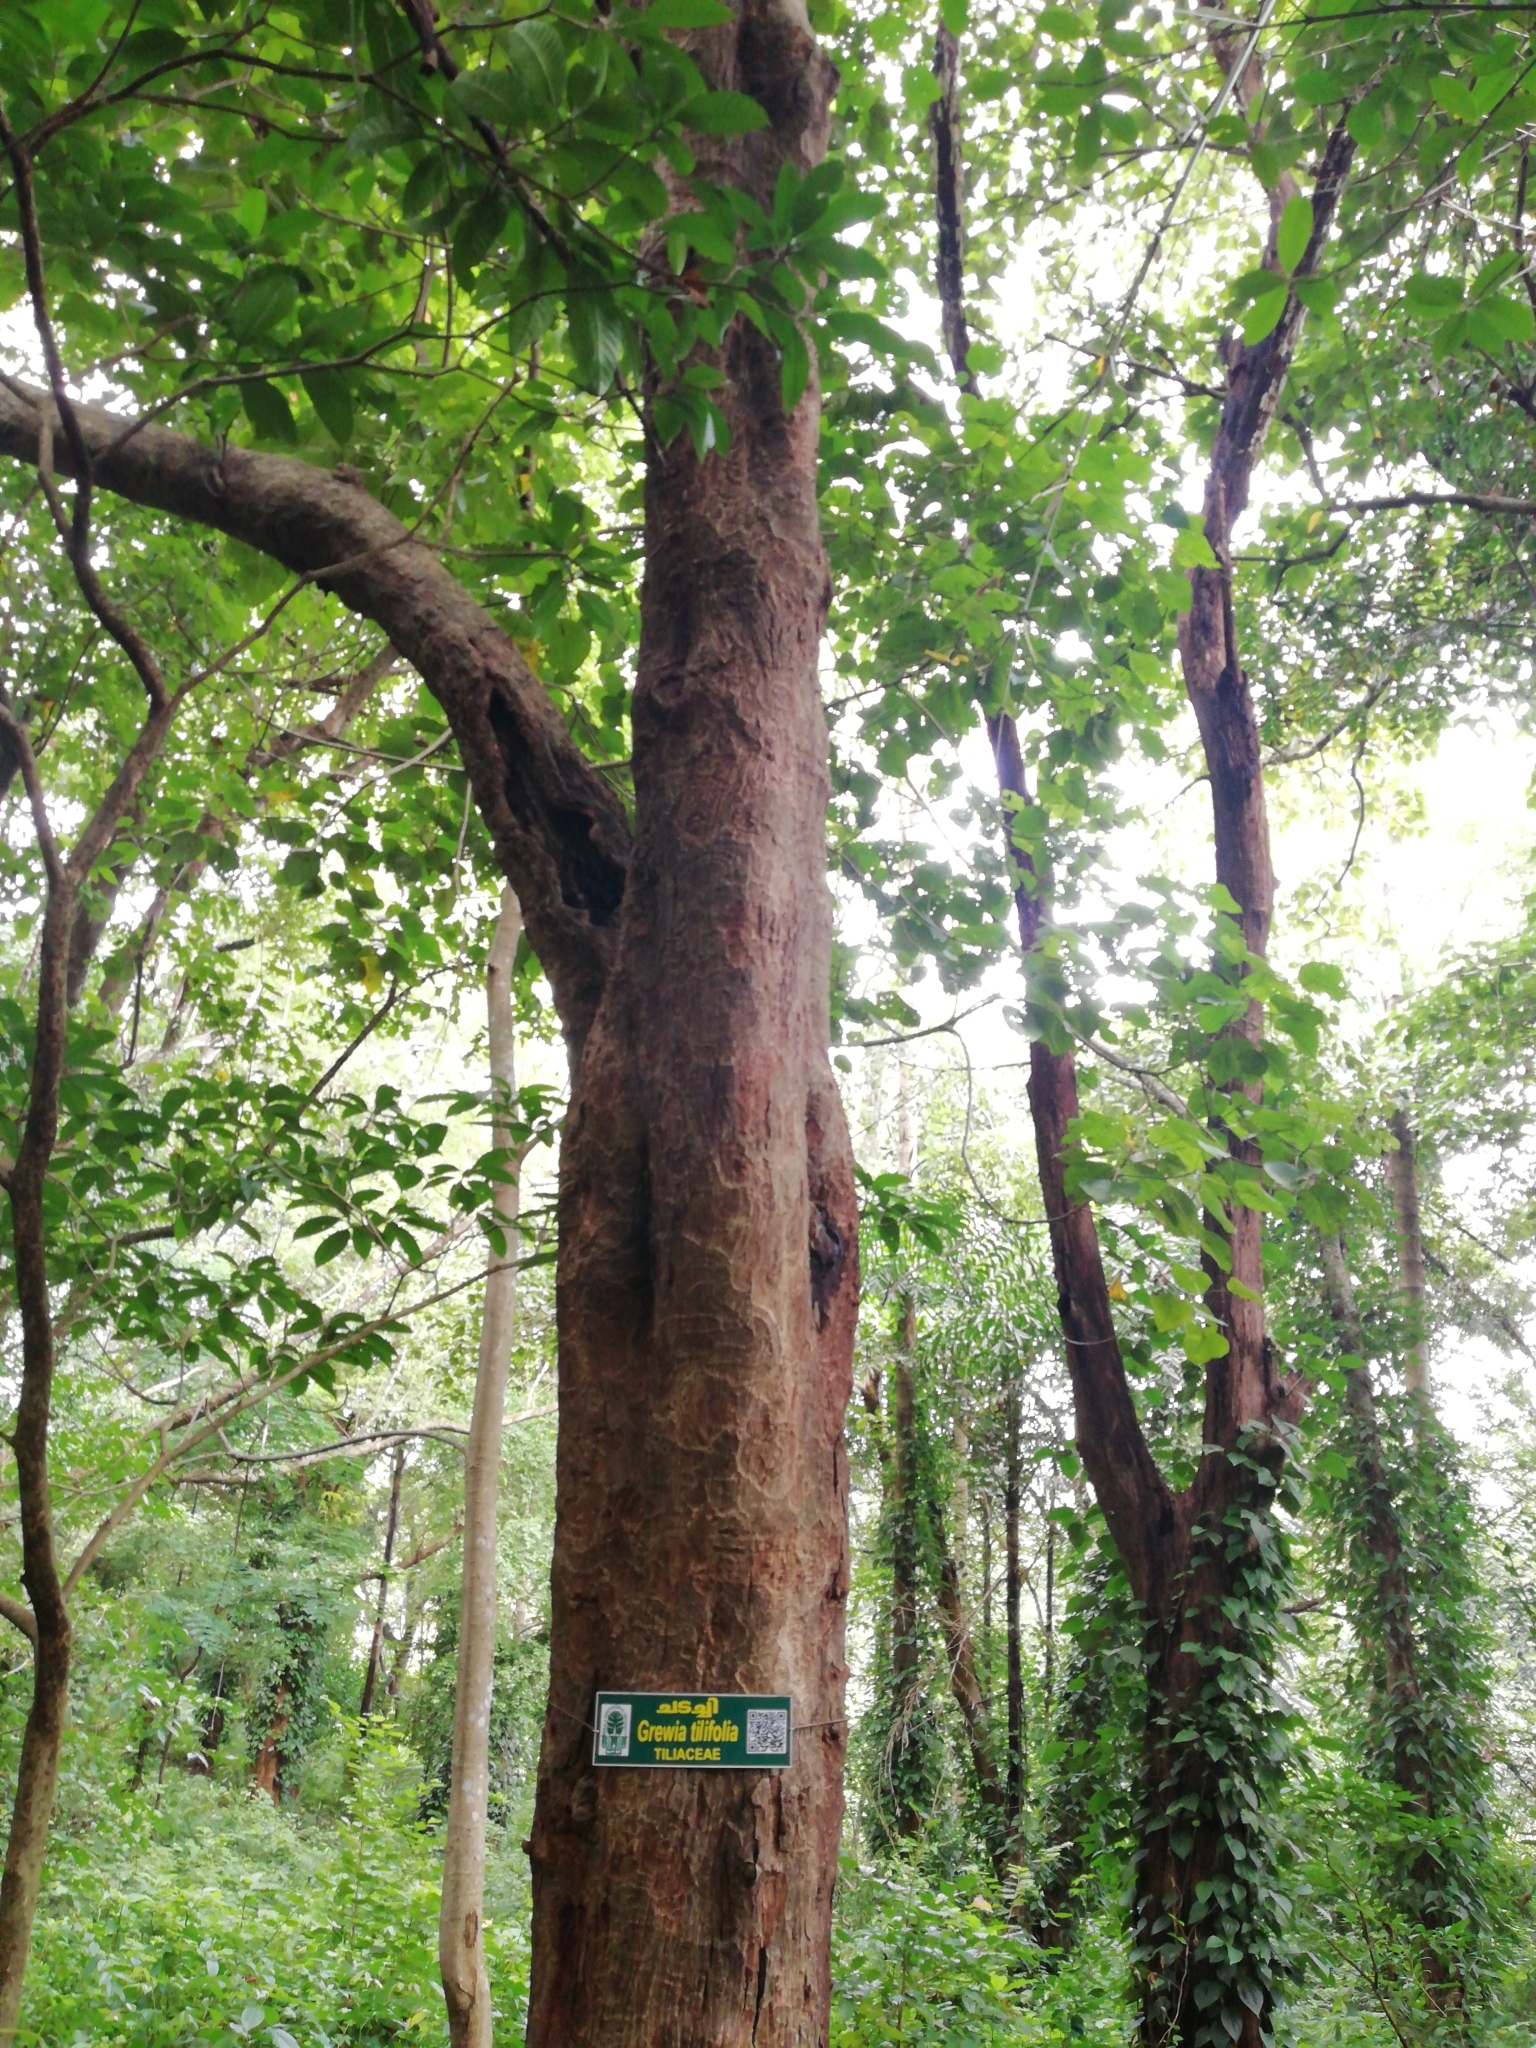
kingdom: Plantae
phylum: Tracheophyta
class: Magnoliopsida
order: Malvales
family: Malvaceae
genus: Grewia
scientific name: Grewia tiliifolia
